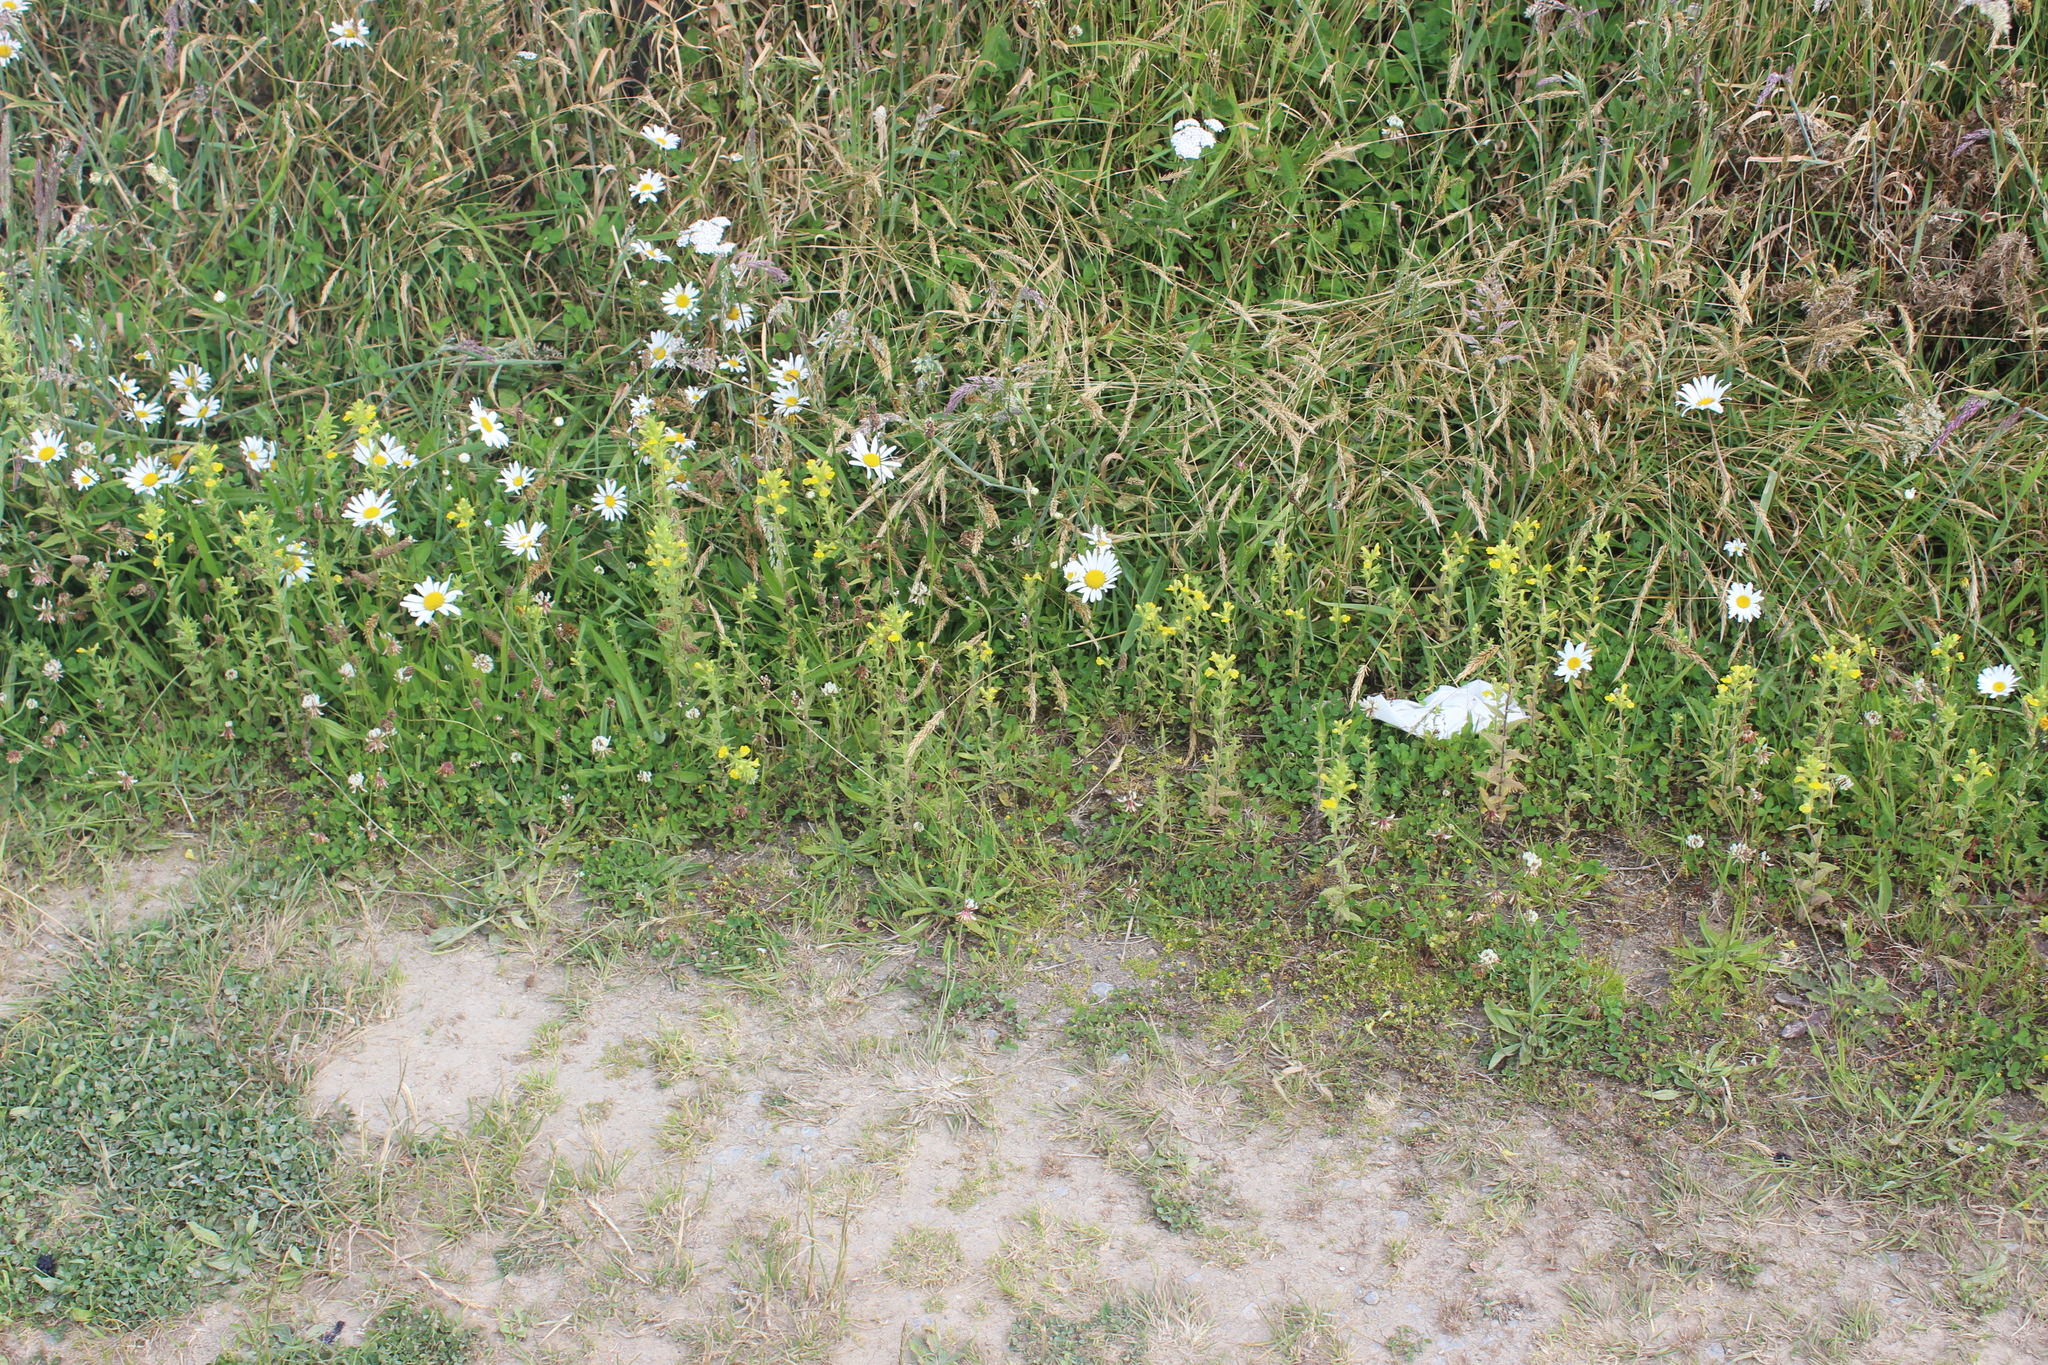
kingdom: Plantae
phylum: Tracheophyta
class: Magnoliopsida
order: Lamiales
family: Orobanchaceae
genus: Bellardia
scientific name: Bellardia viscosa
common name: Sticky parentucellia
